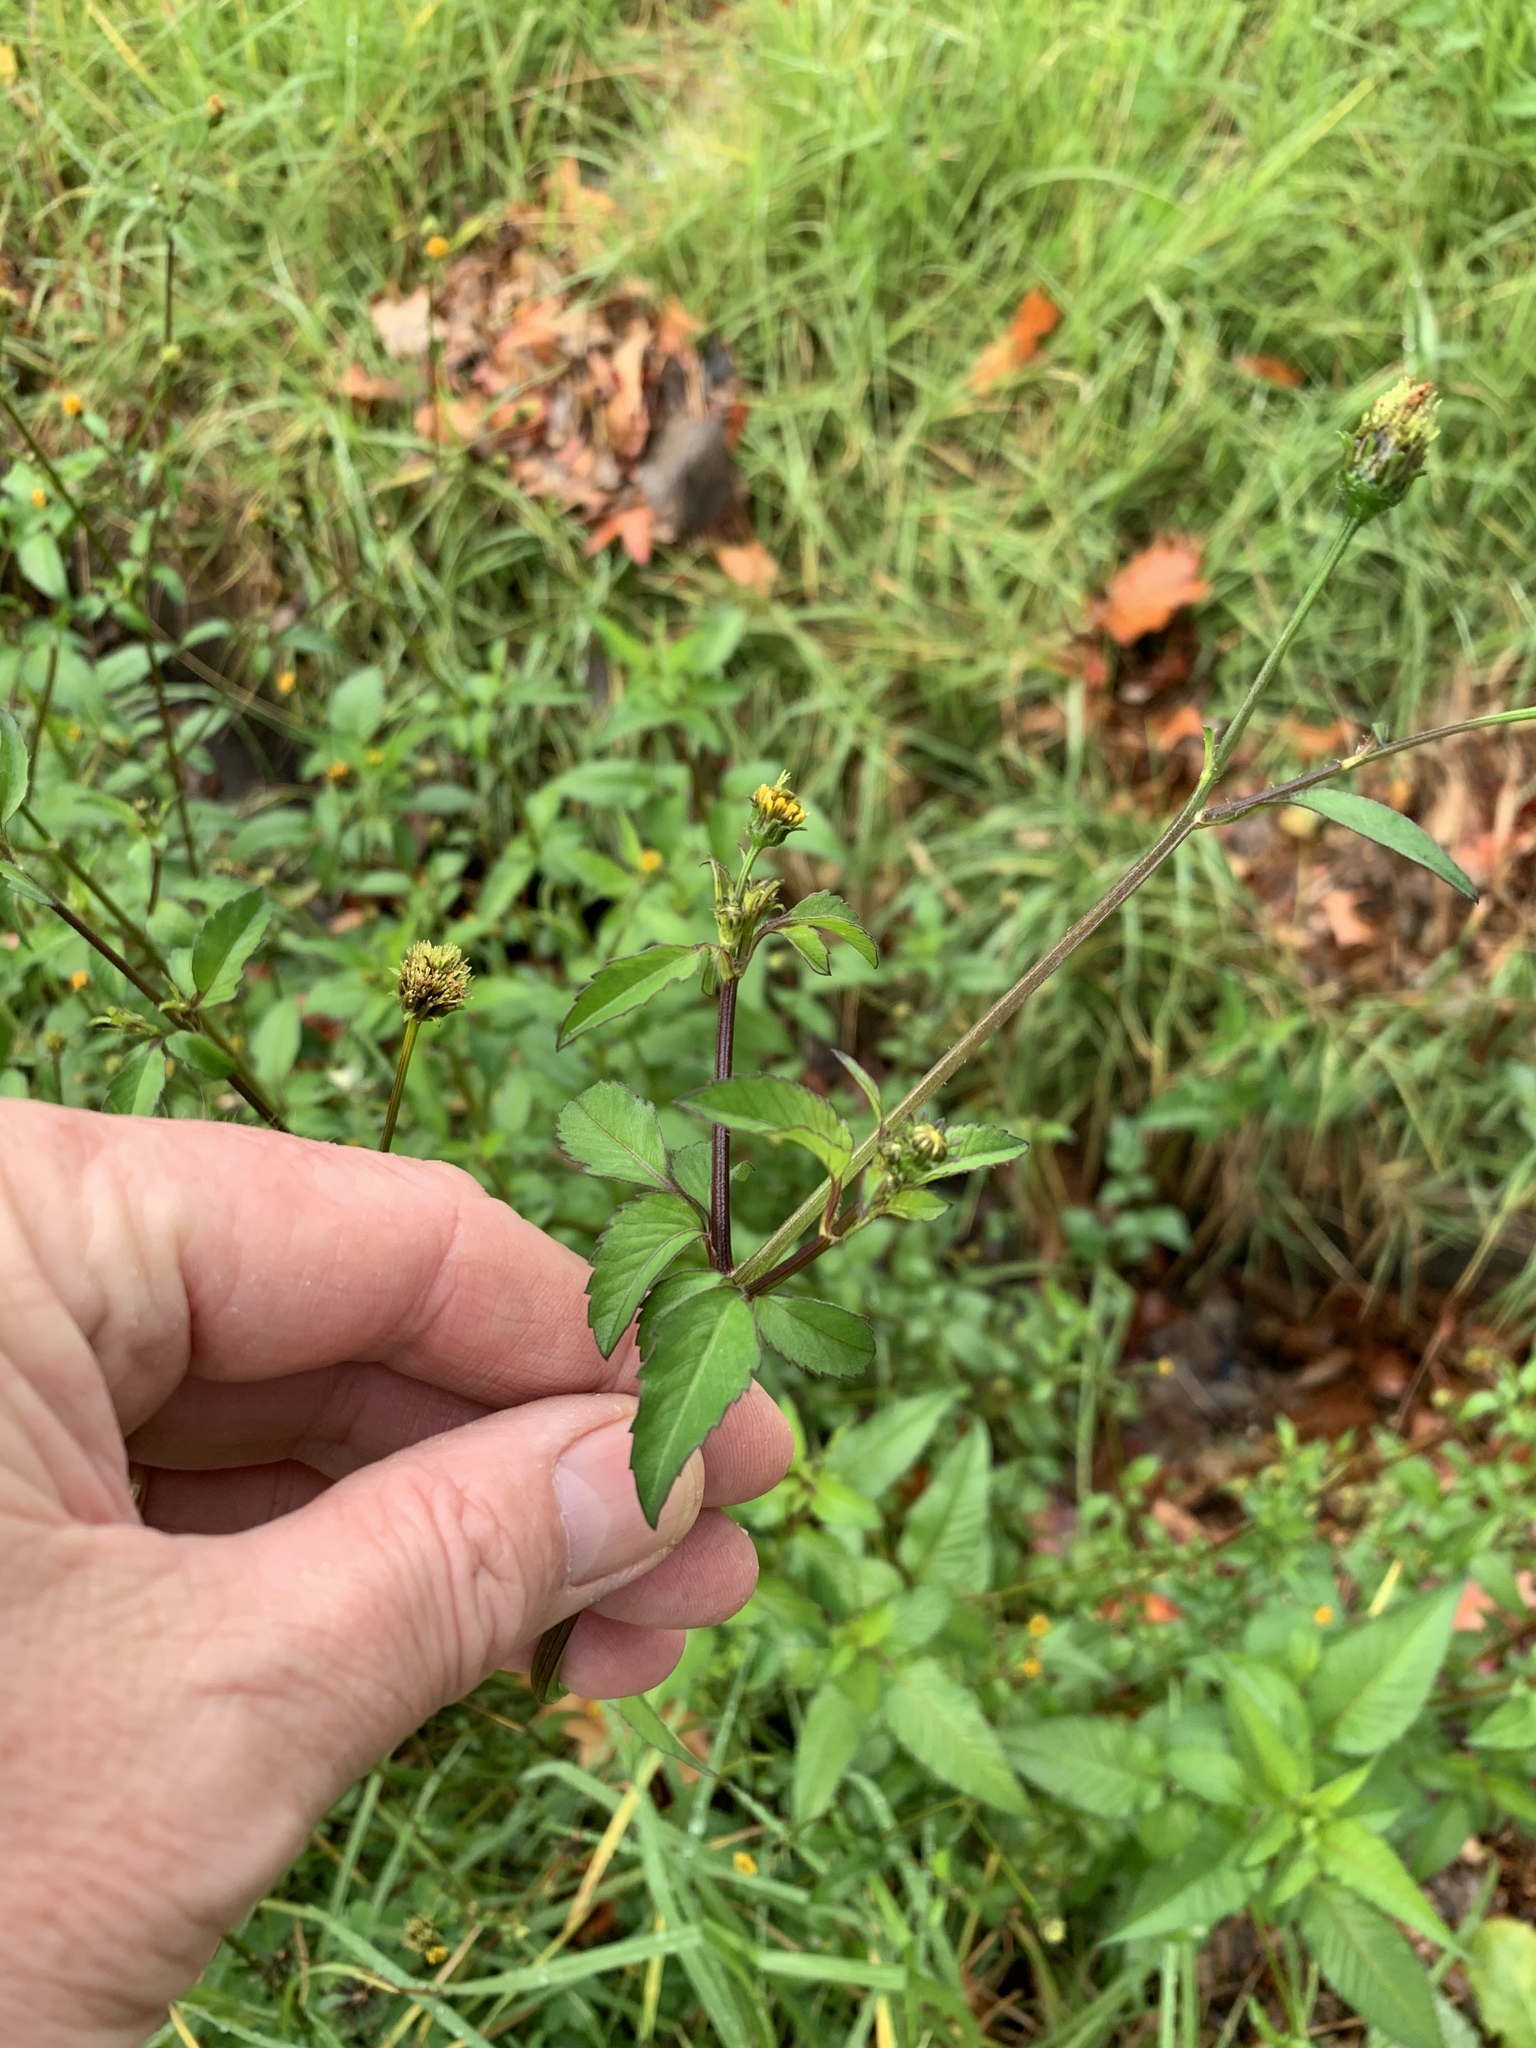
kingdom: Plantae
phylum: Tracheophyta
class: Magnoliopsida
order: Asterales
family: Asteraceae
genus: Bidens
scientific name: Bidens pilosa
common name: Black-jack
